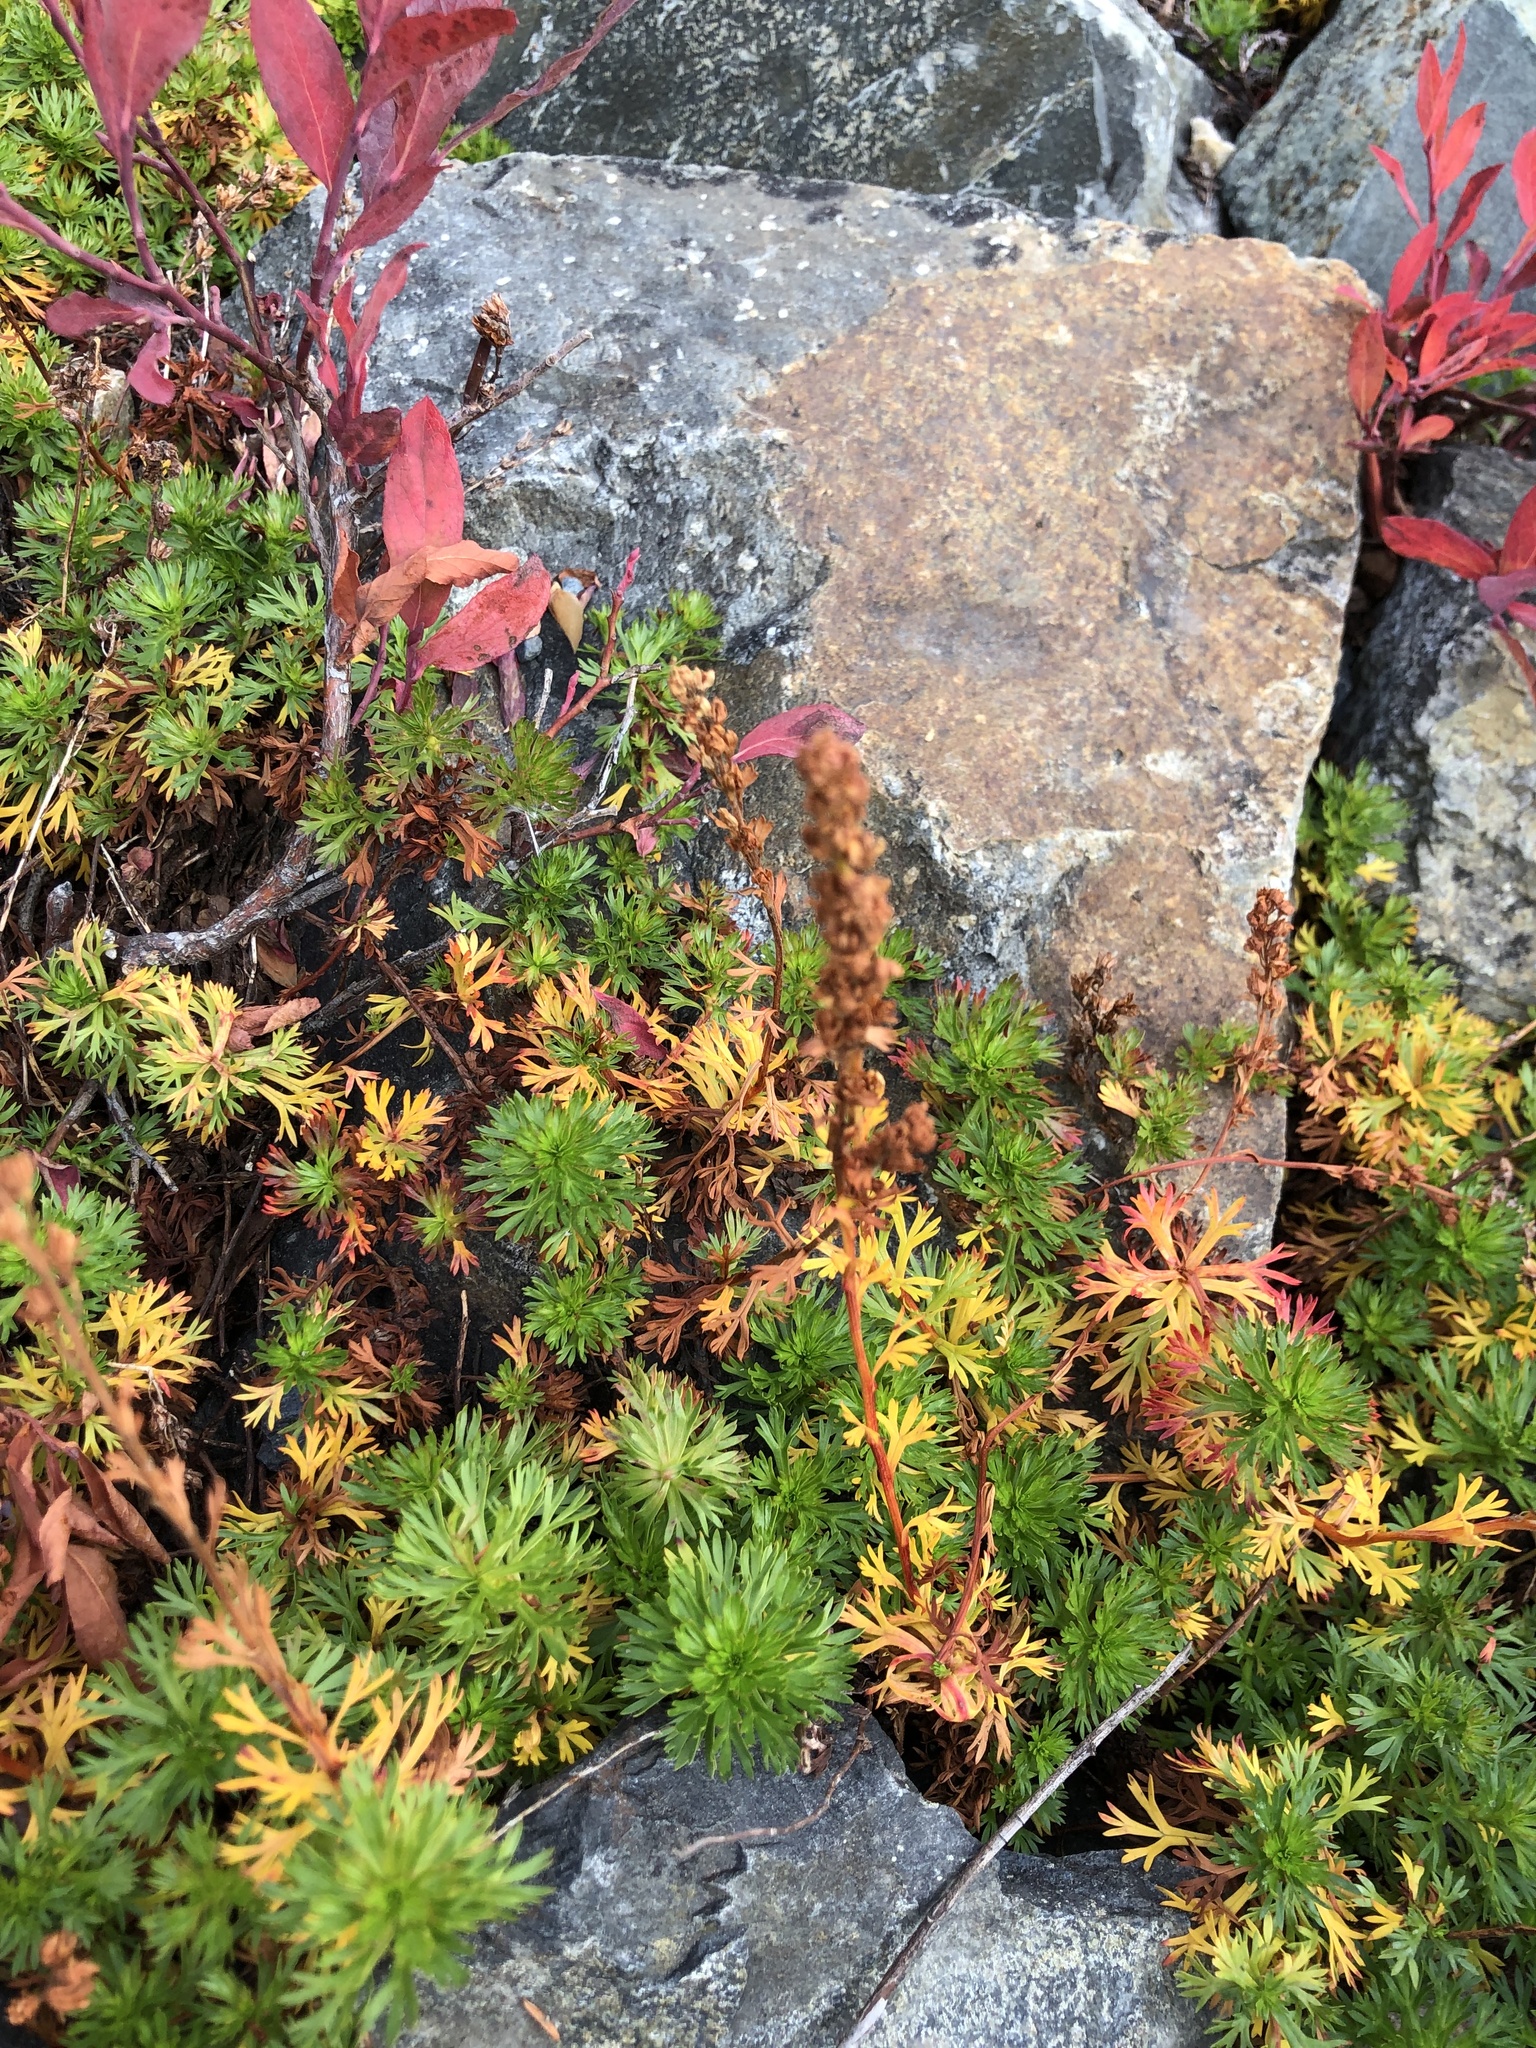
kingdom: Plantae
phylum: Tracheophyta
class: Magnoliopsida
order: Rosales
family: Rosaceae
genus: Luetkea
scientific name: Luetkea pectinata
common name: Partridgefoot
